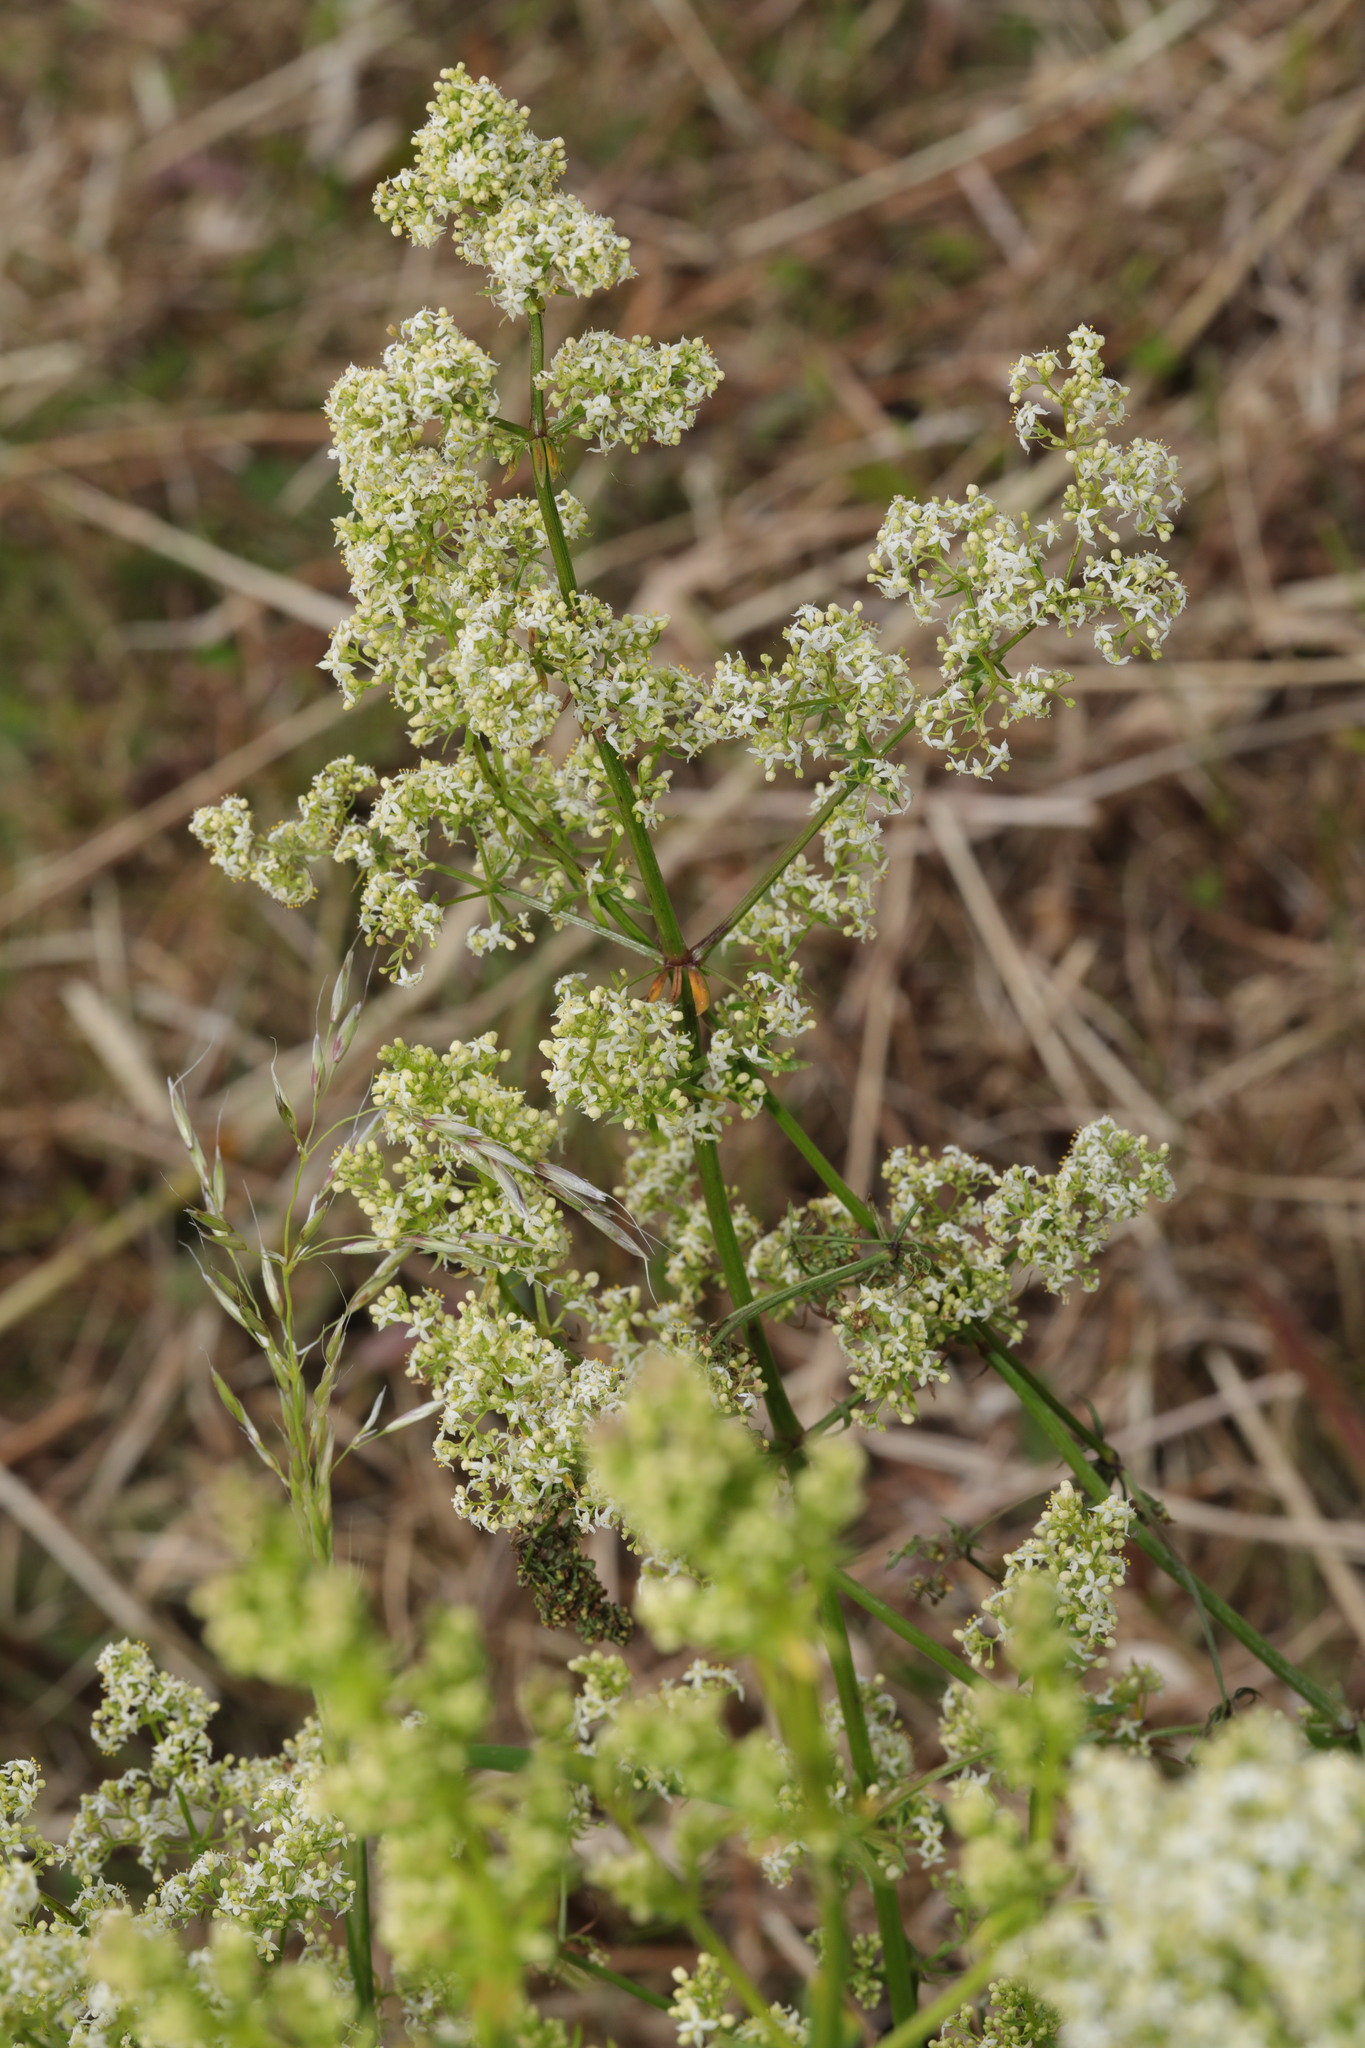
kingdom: Plantae
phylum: Tracheophyta
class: Magnoliopsida
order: Gentianales
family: Rubiaceae
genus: Galium
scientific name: Galium mollugo
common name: Hedge bedstraw
